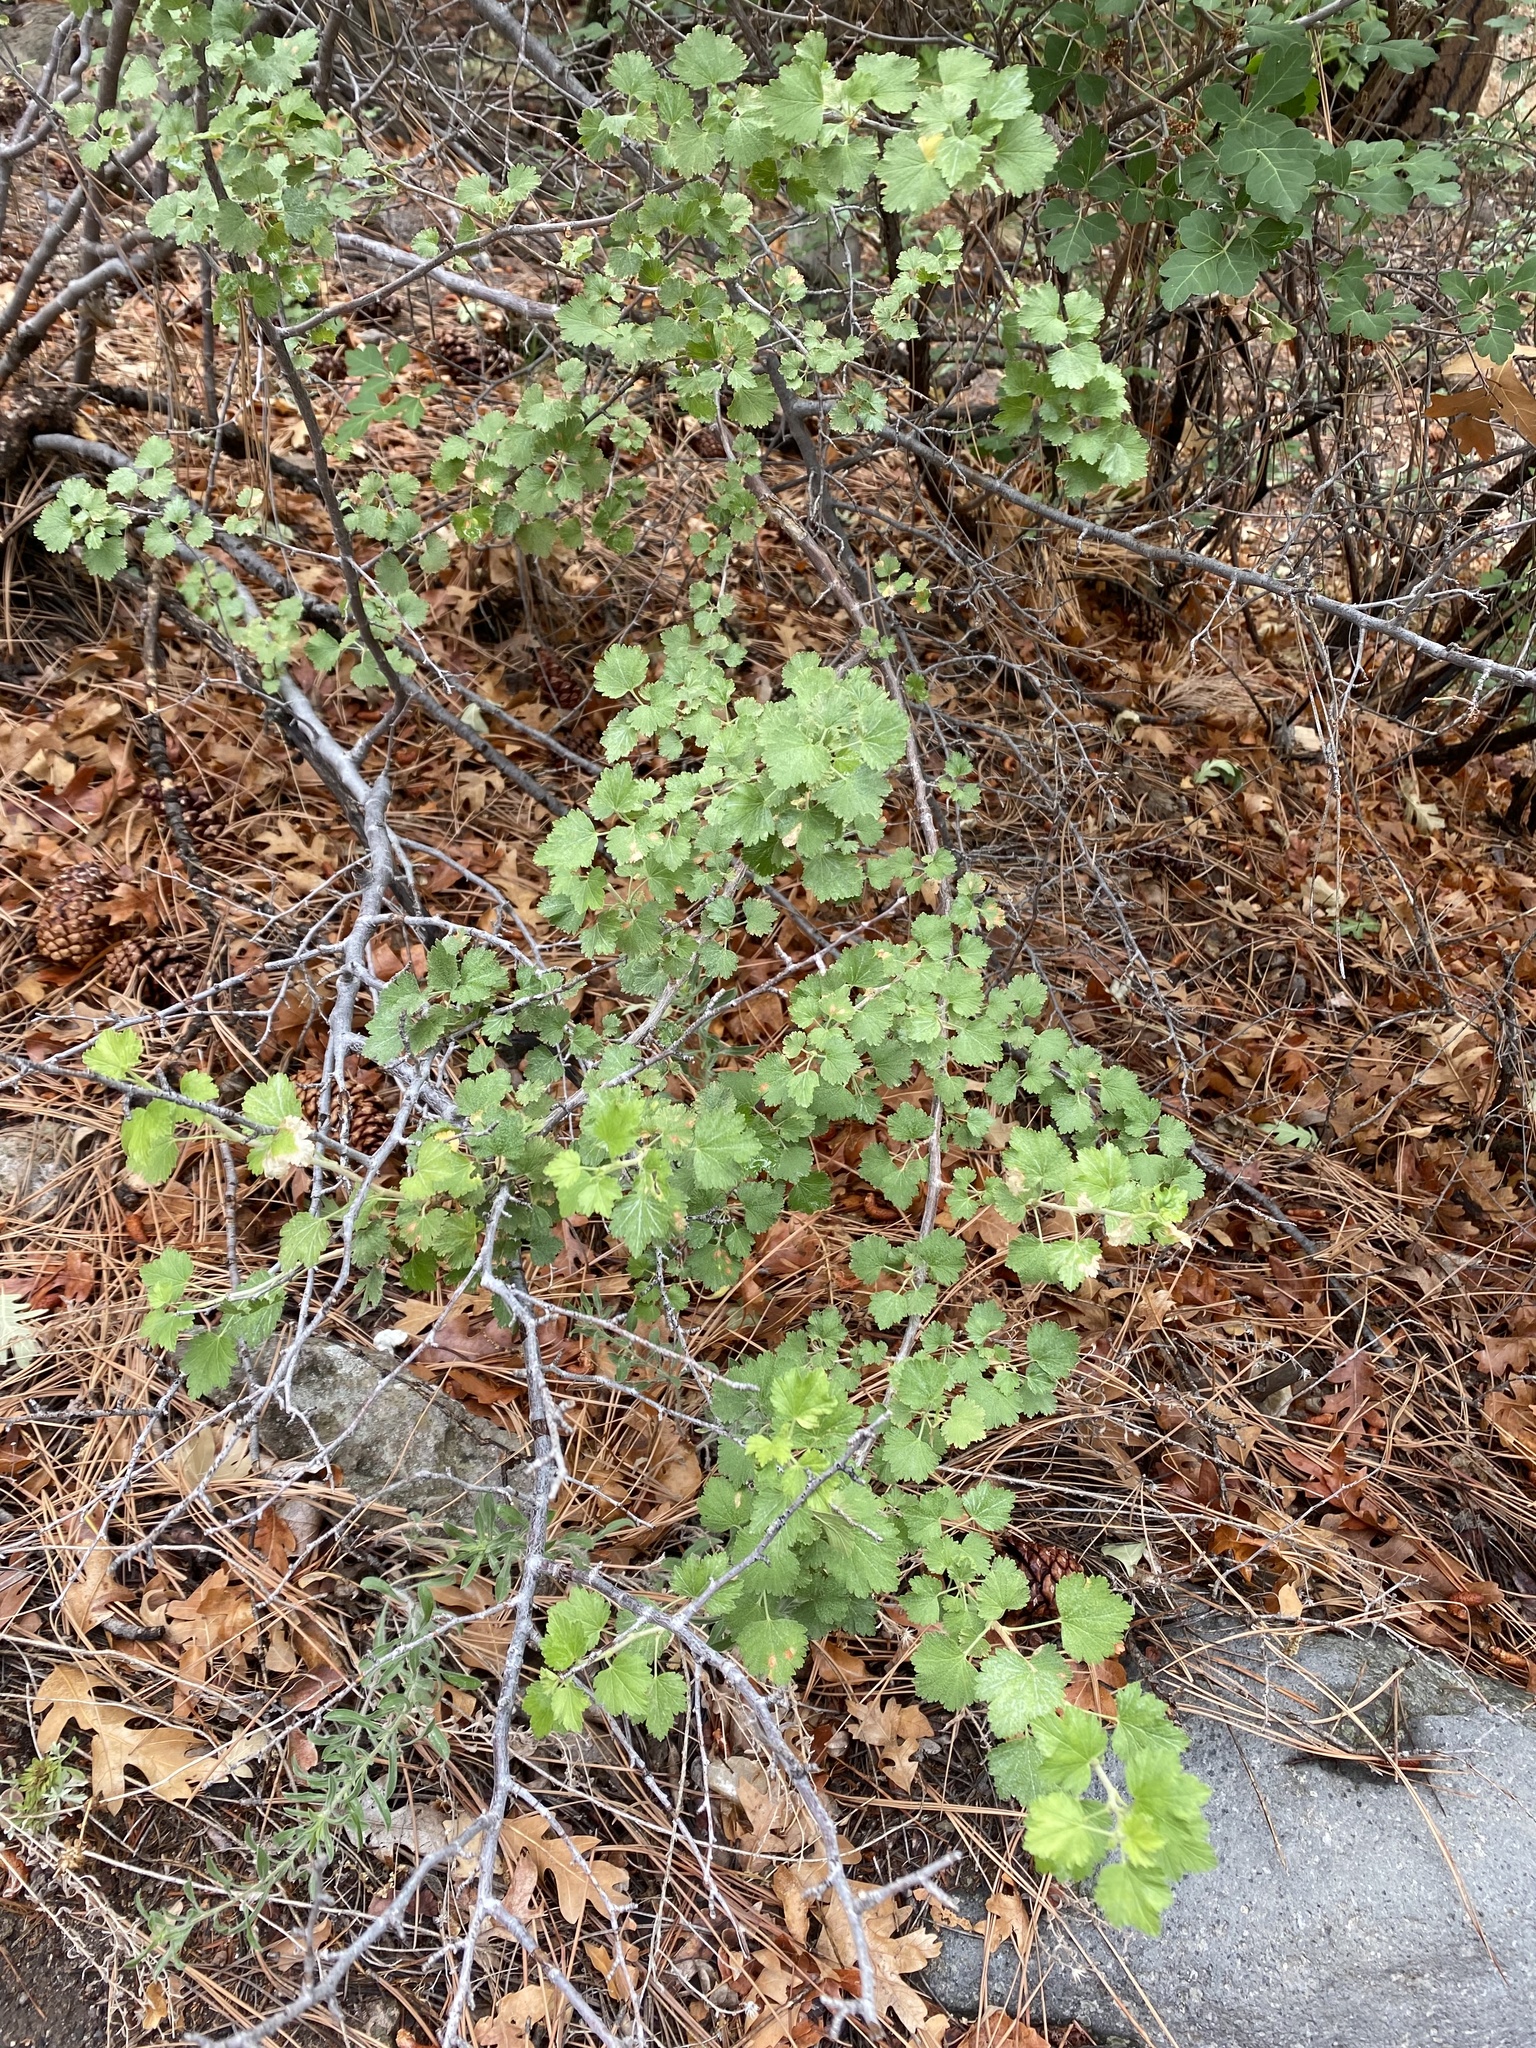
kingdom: Plantae
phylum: Tracheophyta
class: Magnoliopsida
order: Saxifragales
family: Grossulariaceae
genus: Ribes
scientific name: Ribes cereum
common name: Wax currant
